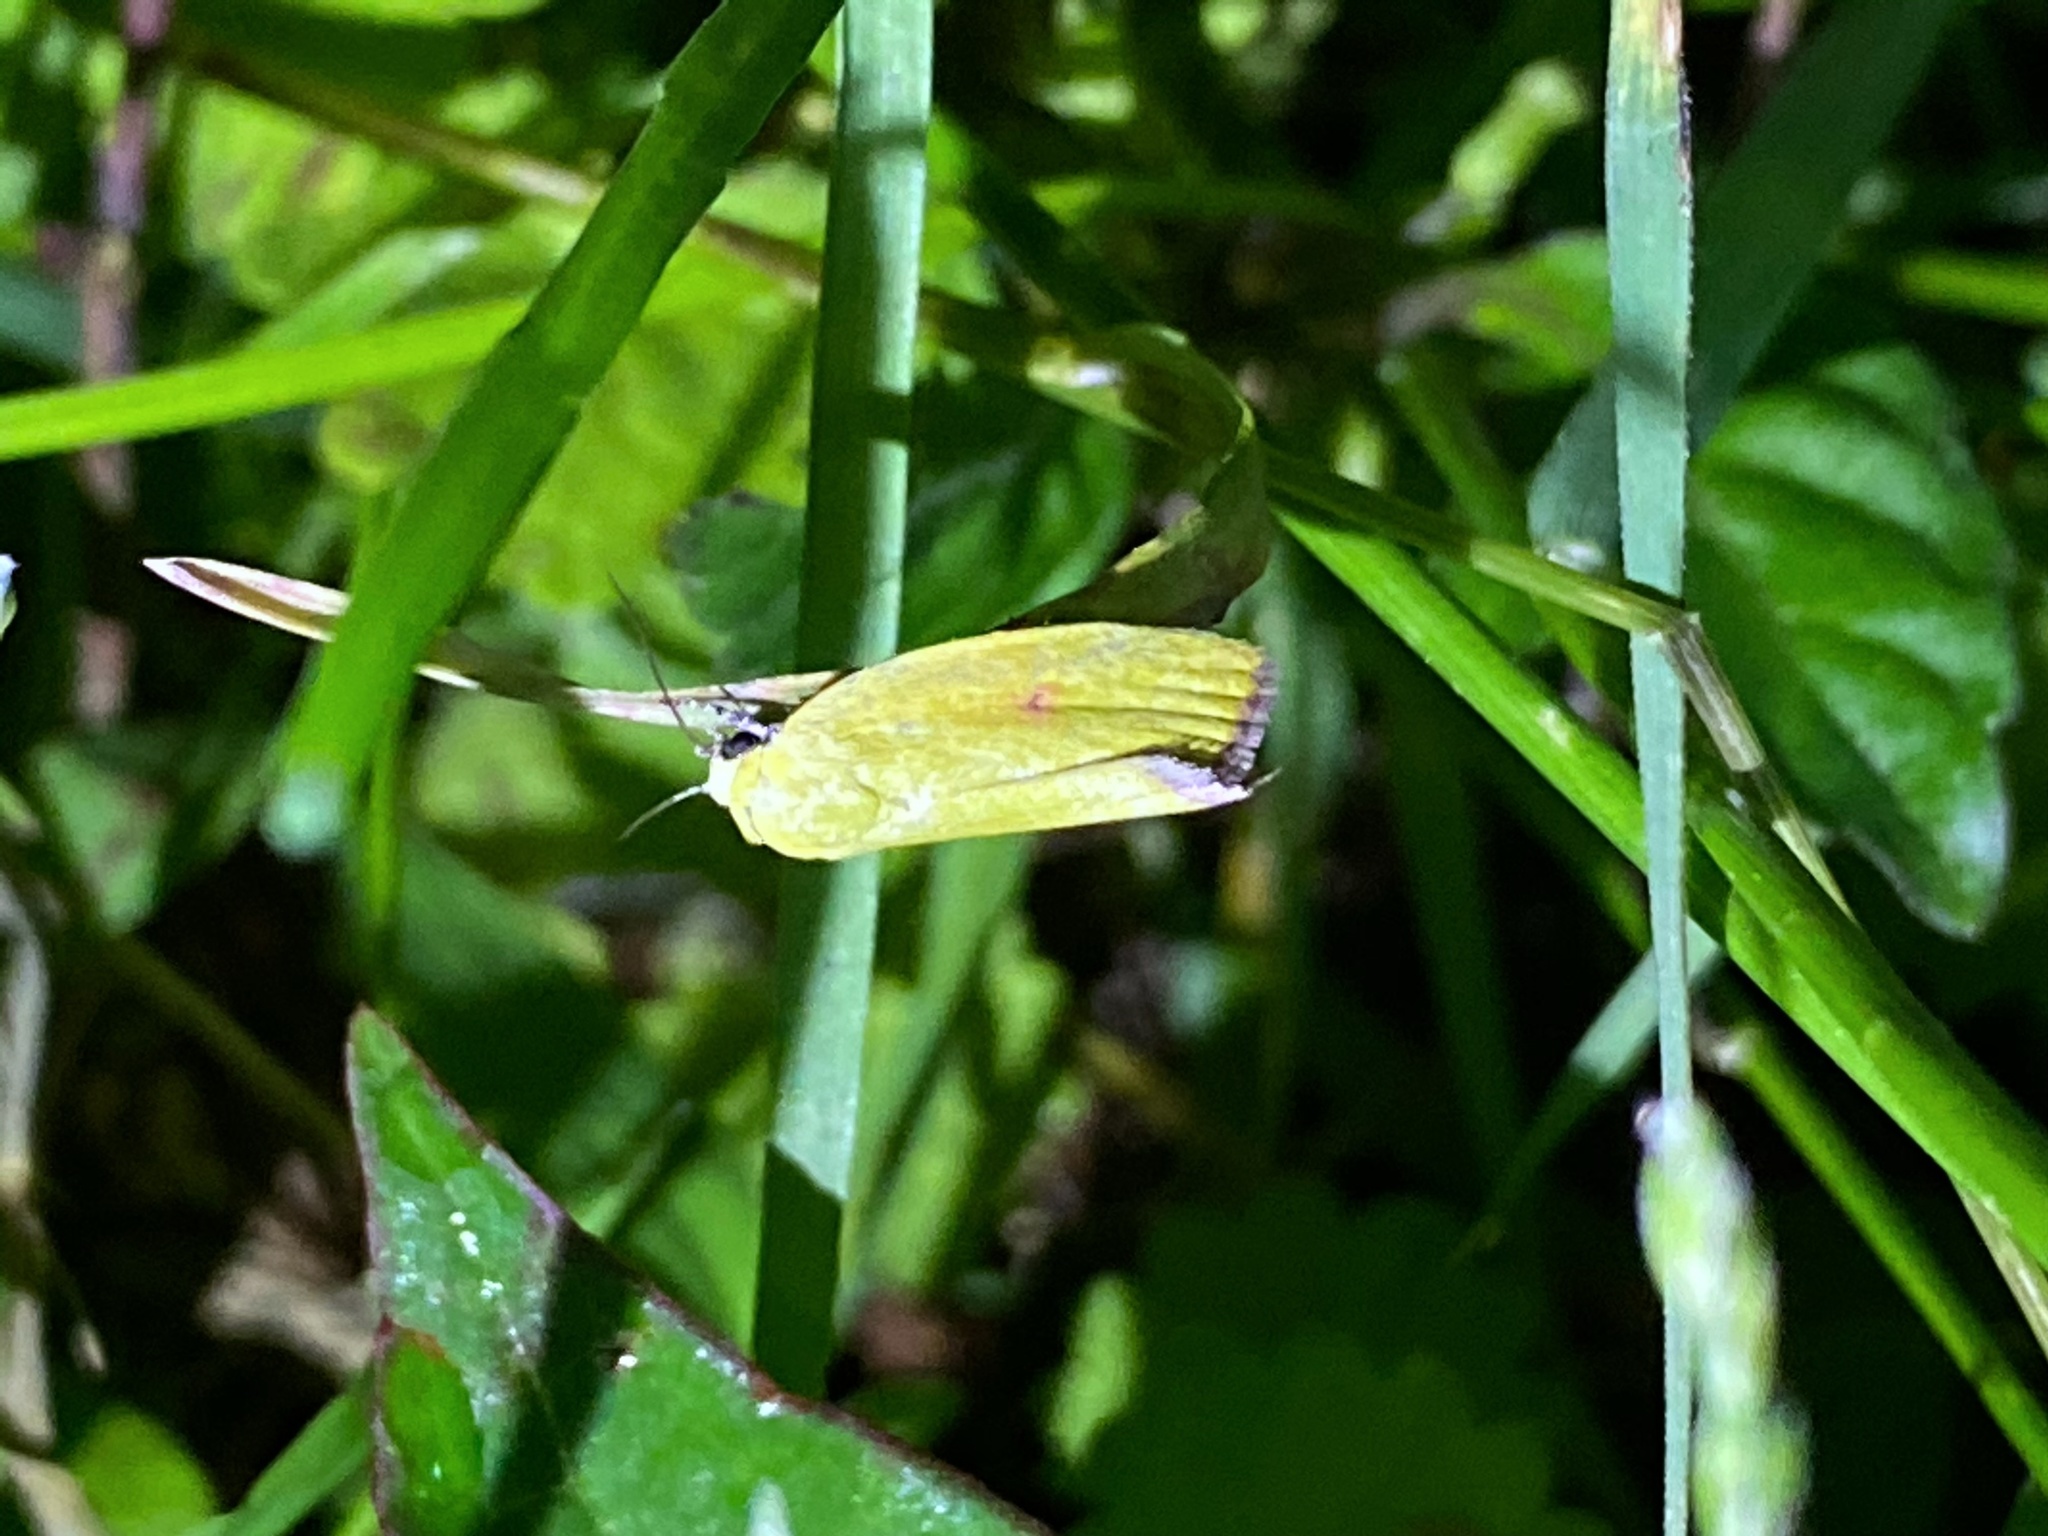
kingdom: Animalia
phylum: Arthropoda
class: Insecta
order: Lepidoptera
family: Nolidae
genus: Earias
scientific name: Earias roseifera
